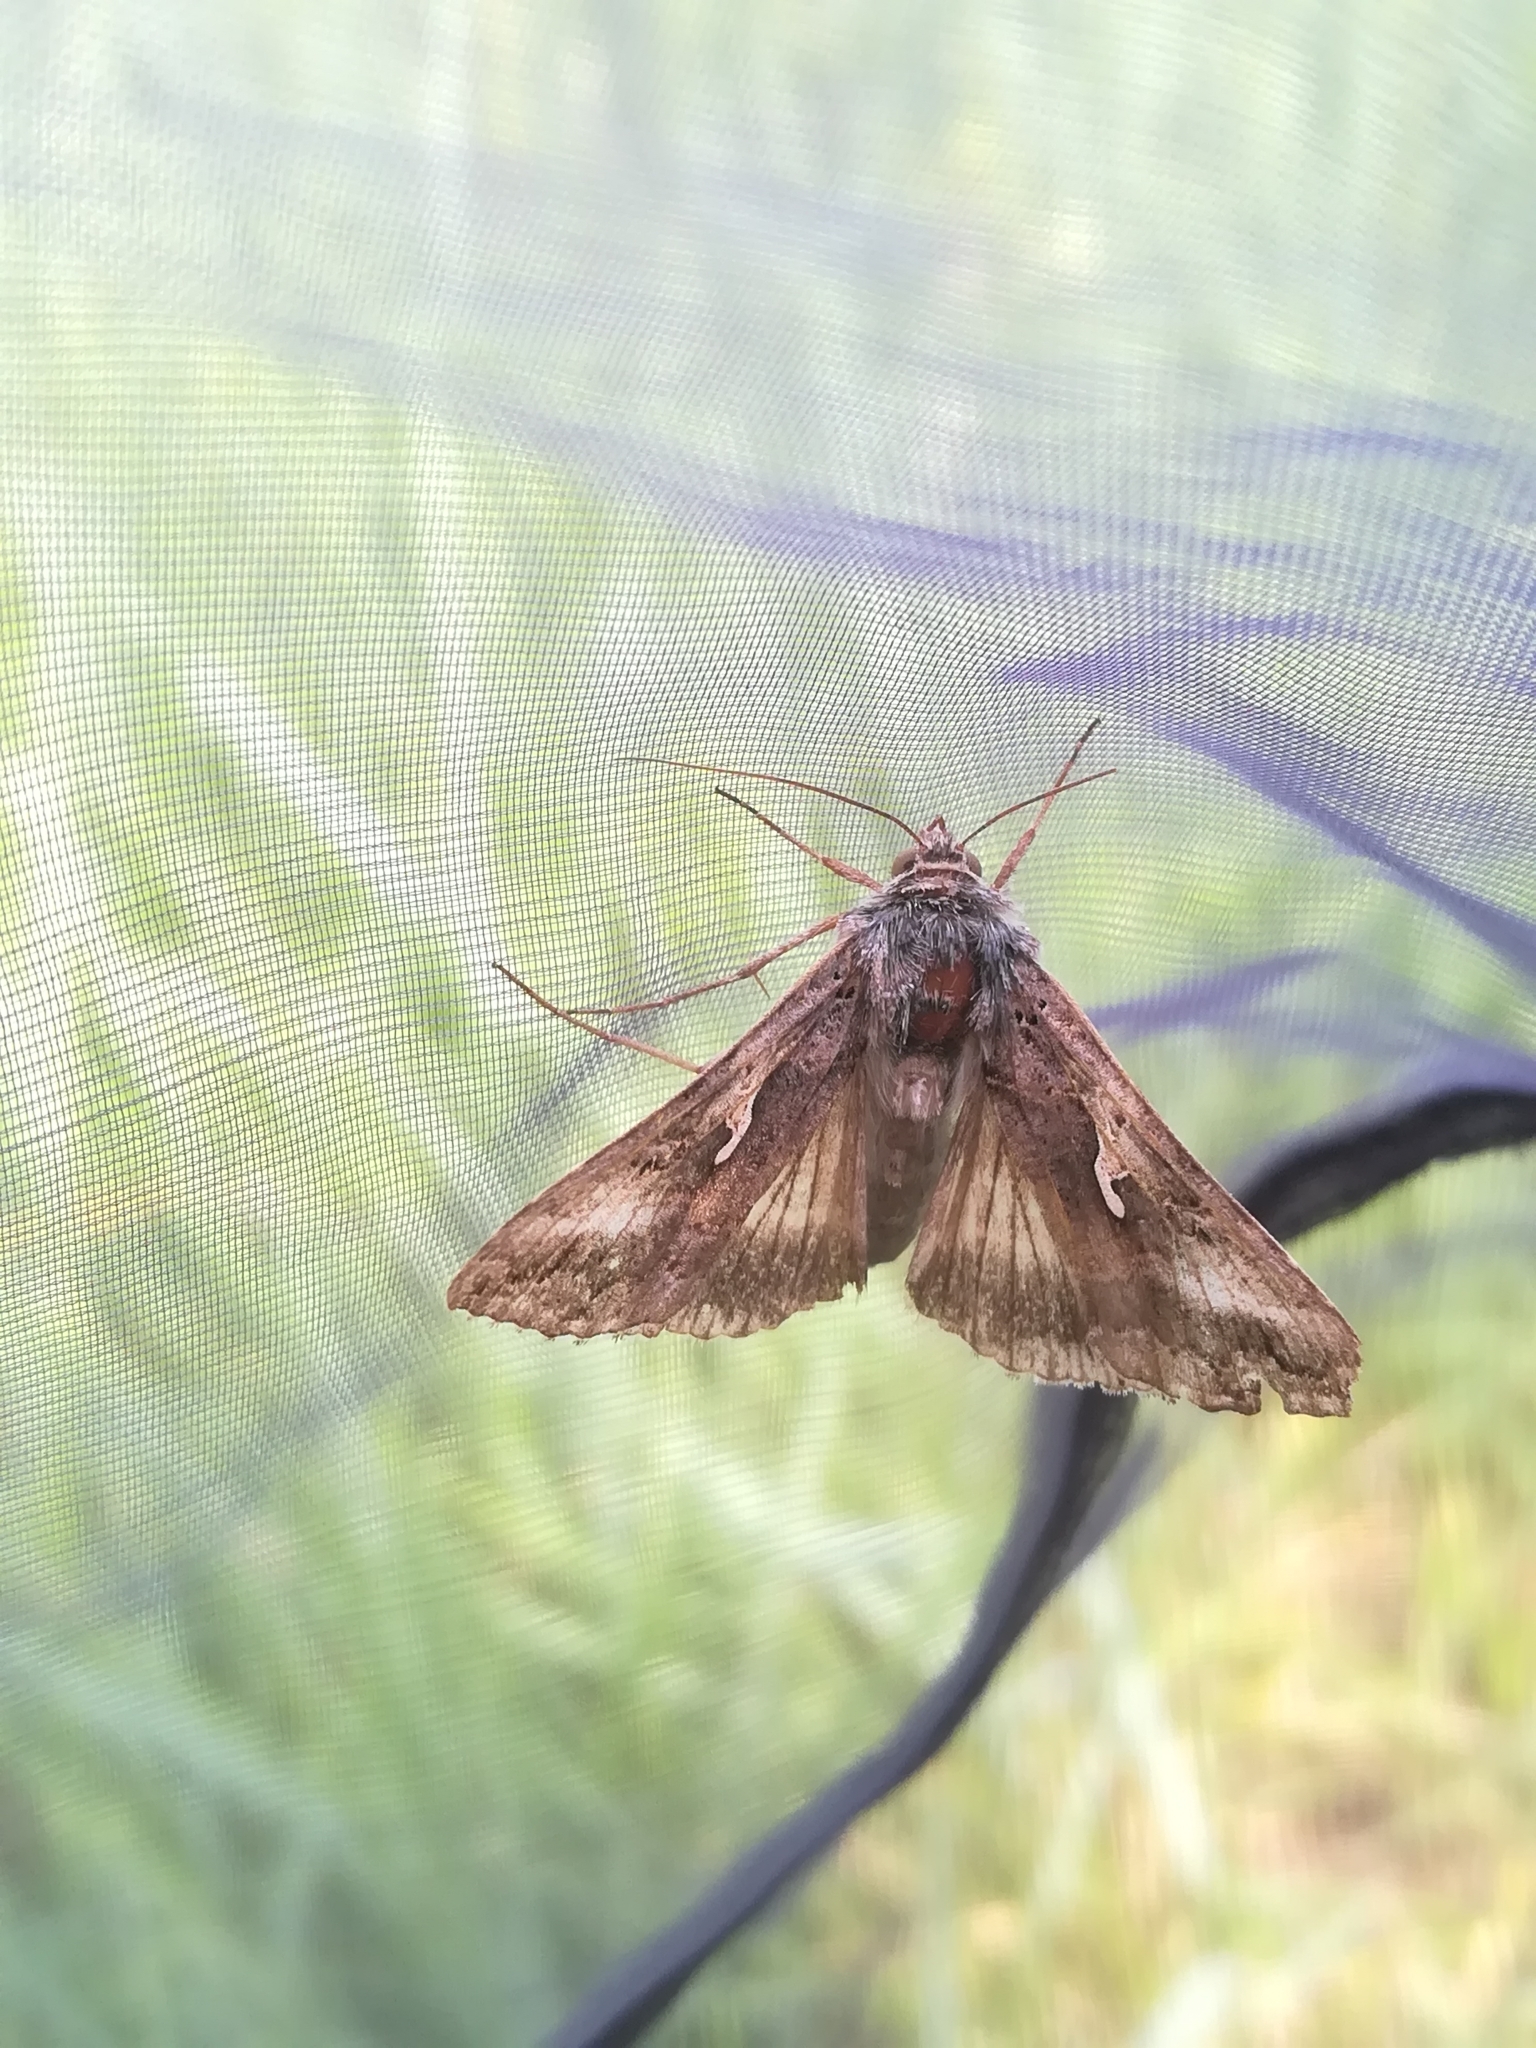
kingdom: Animalia
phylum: Arthropoda
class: Insecta
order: Lepidoptera
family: Noctuidae
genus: Autographa
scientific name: Autographa gamma
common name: Silver y
